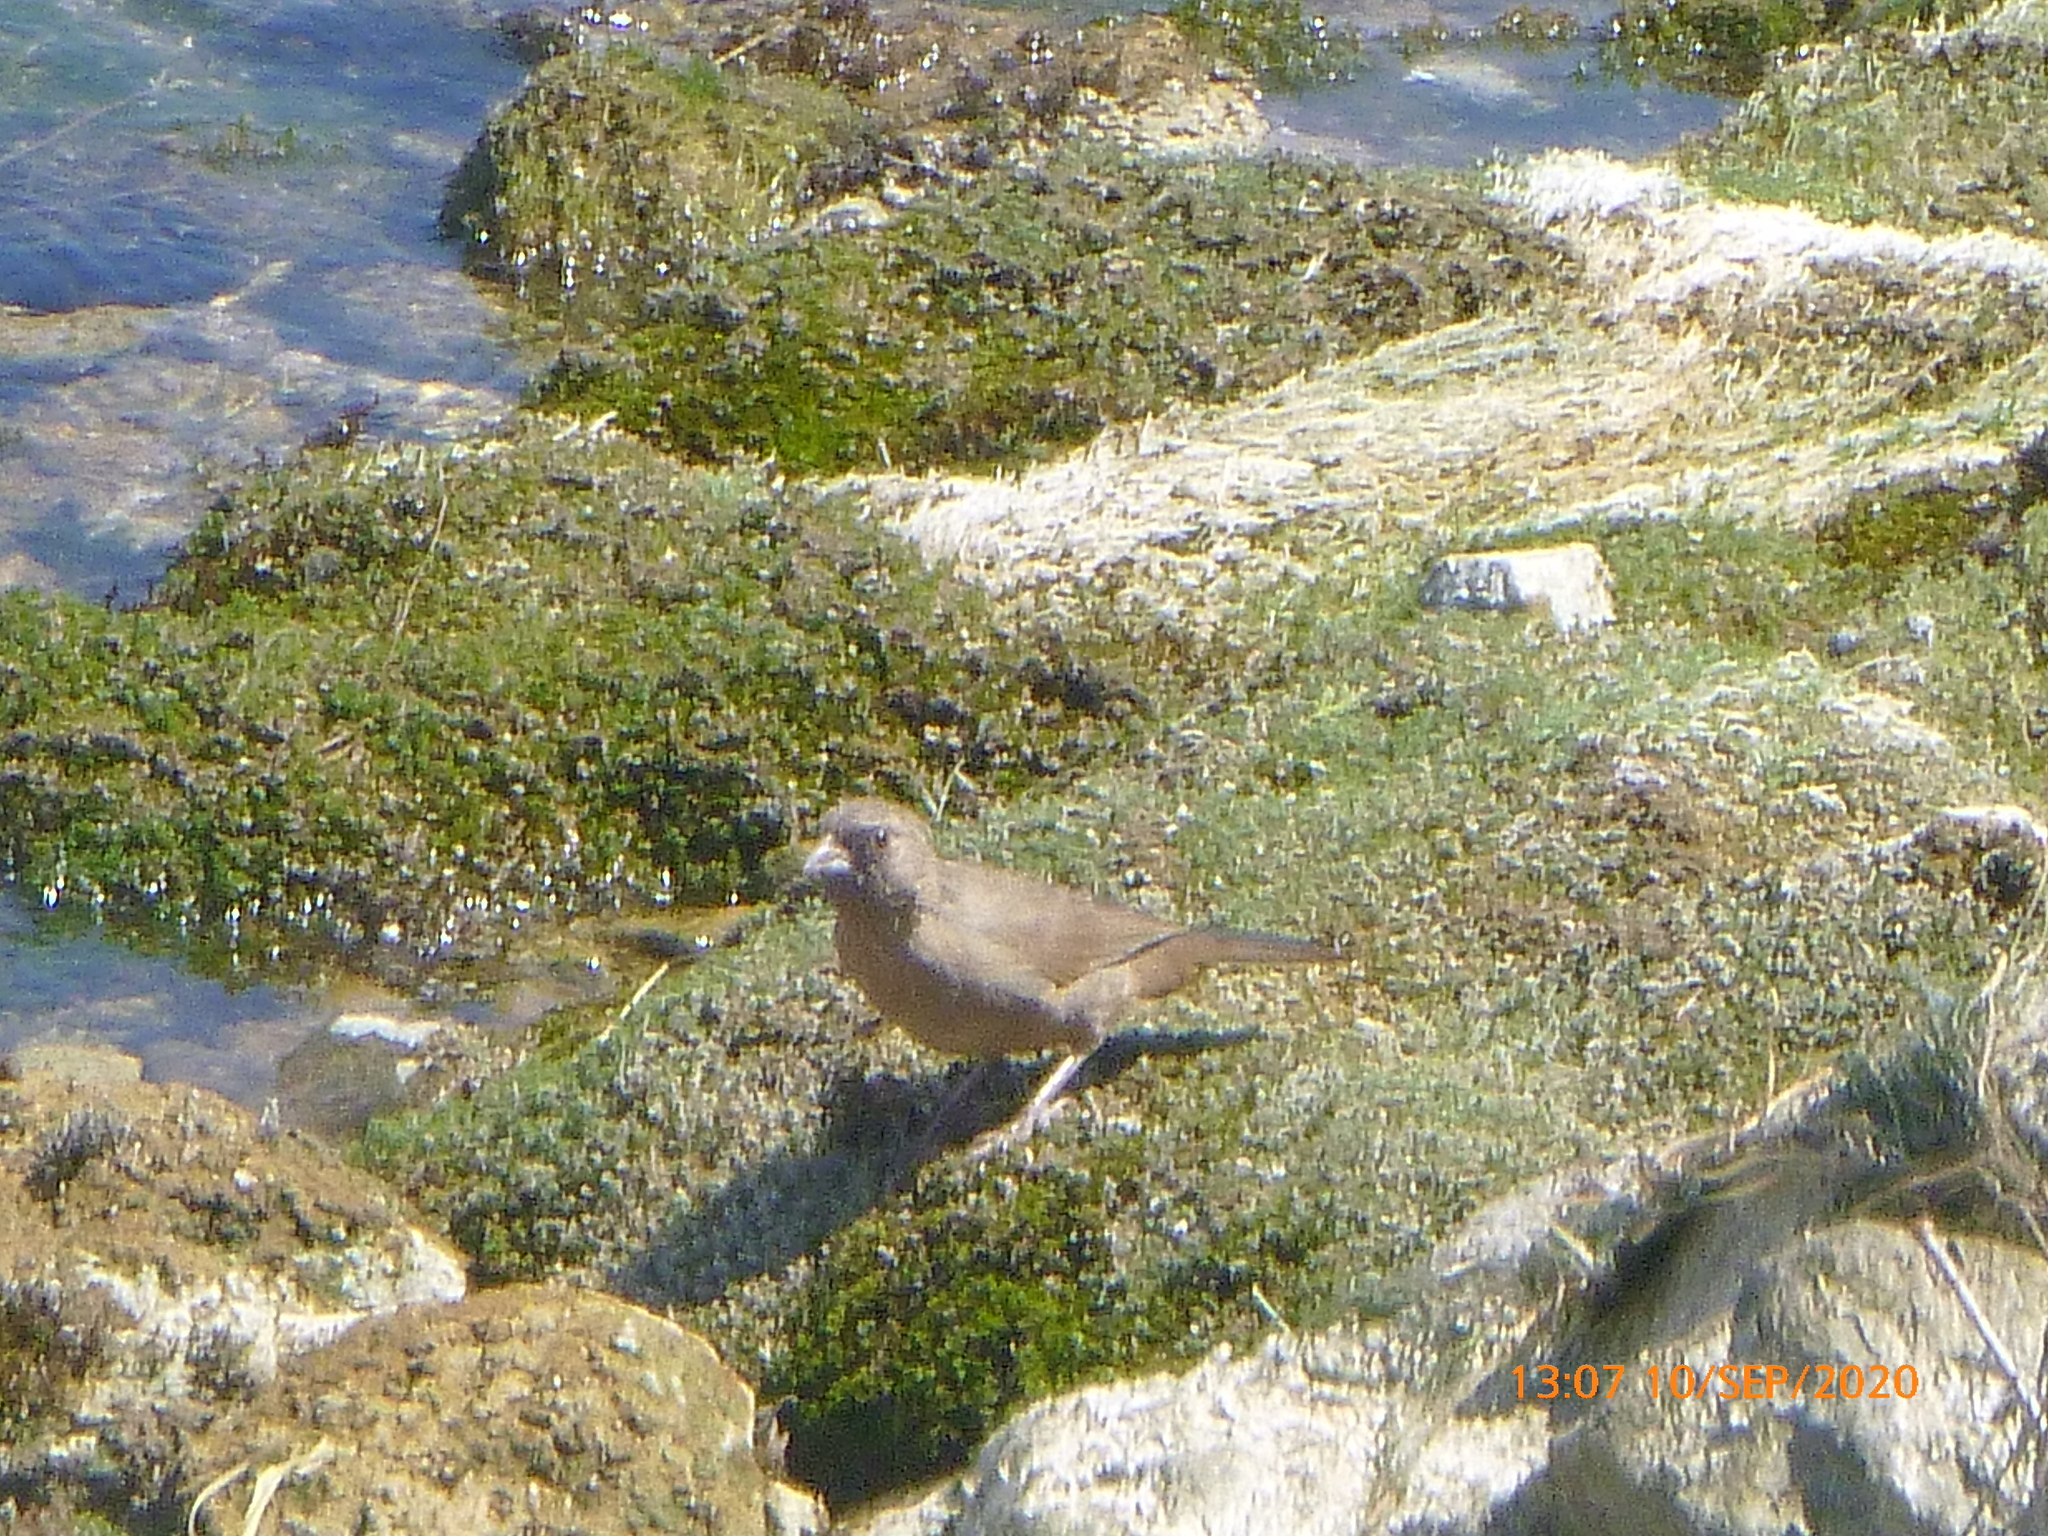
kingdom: Animalia
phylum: Chordata
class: Aves
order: Passeriformes
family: Passerellidae
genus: Melozone
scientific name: Melozone aberti
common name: Abert's towhee
